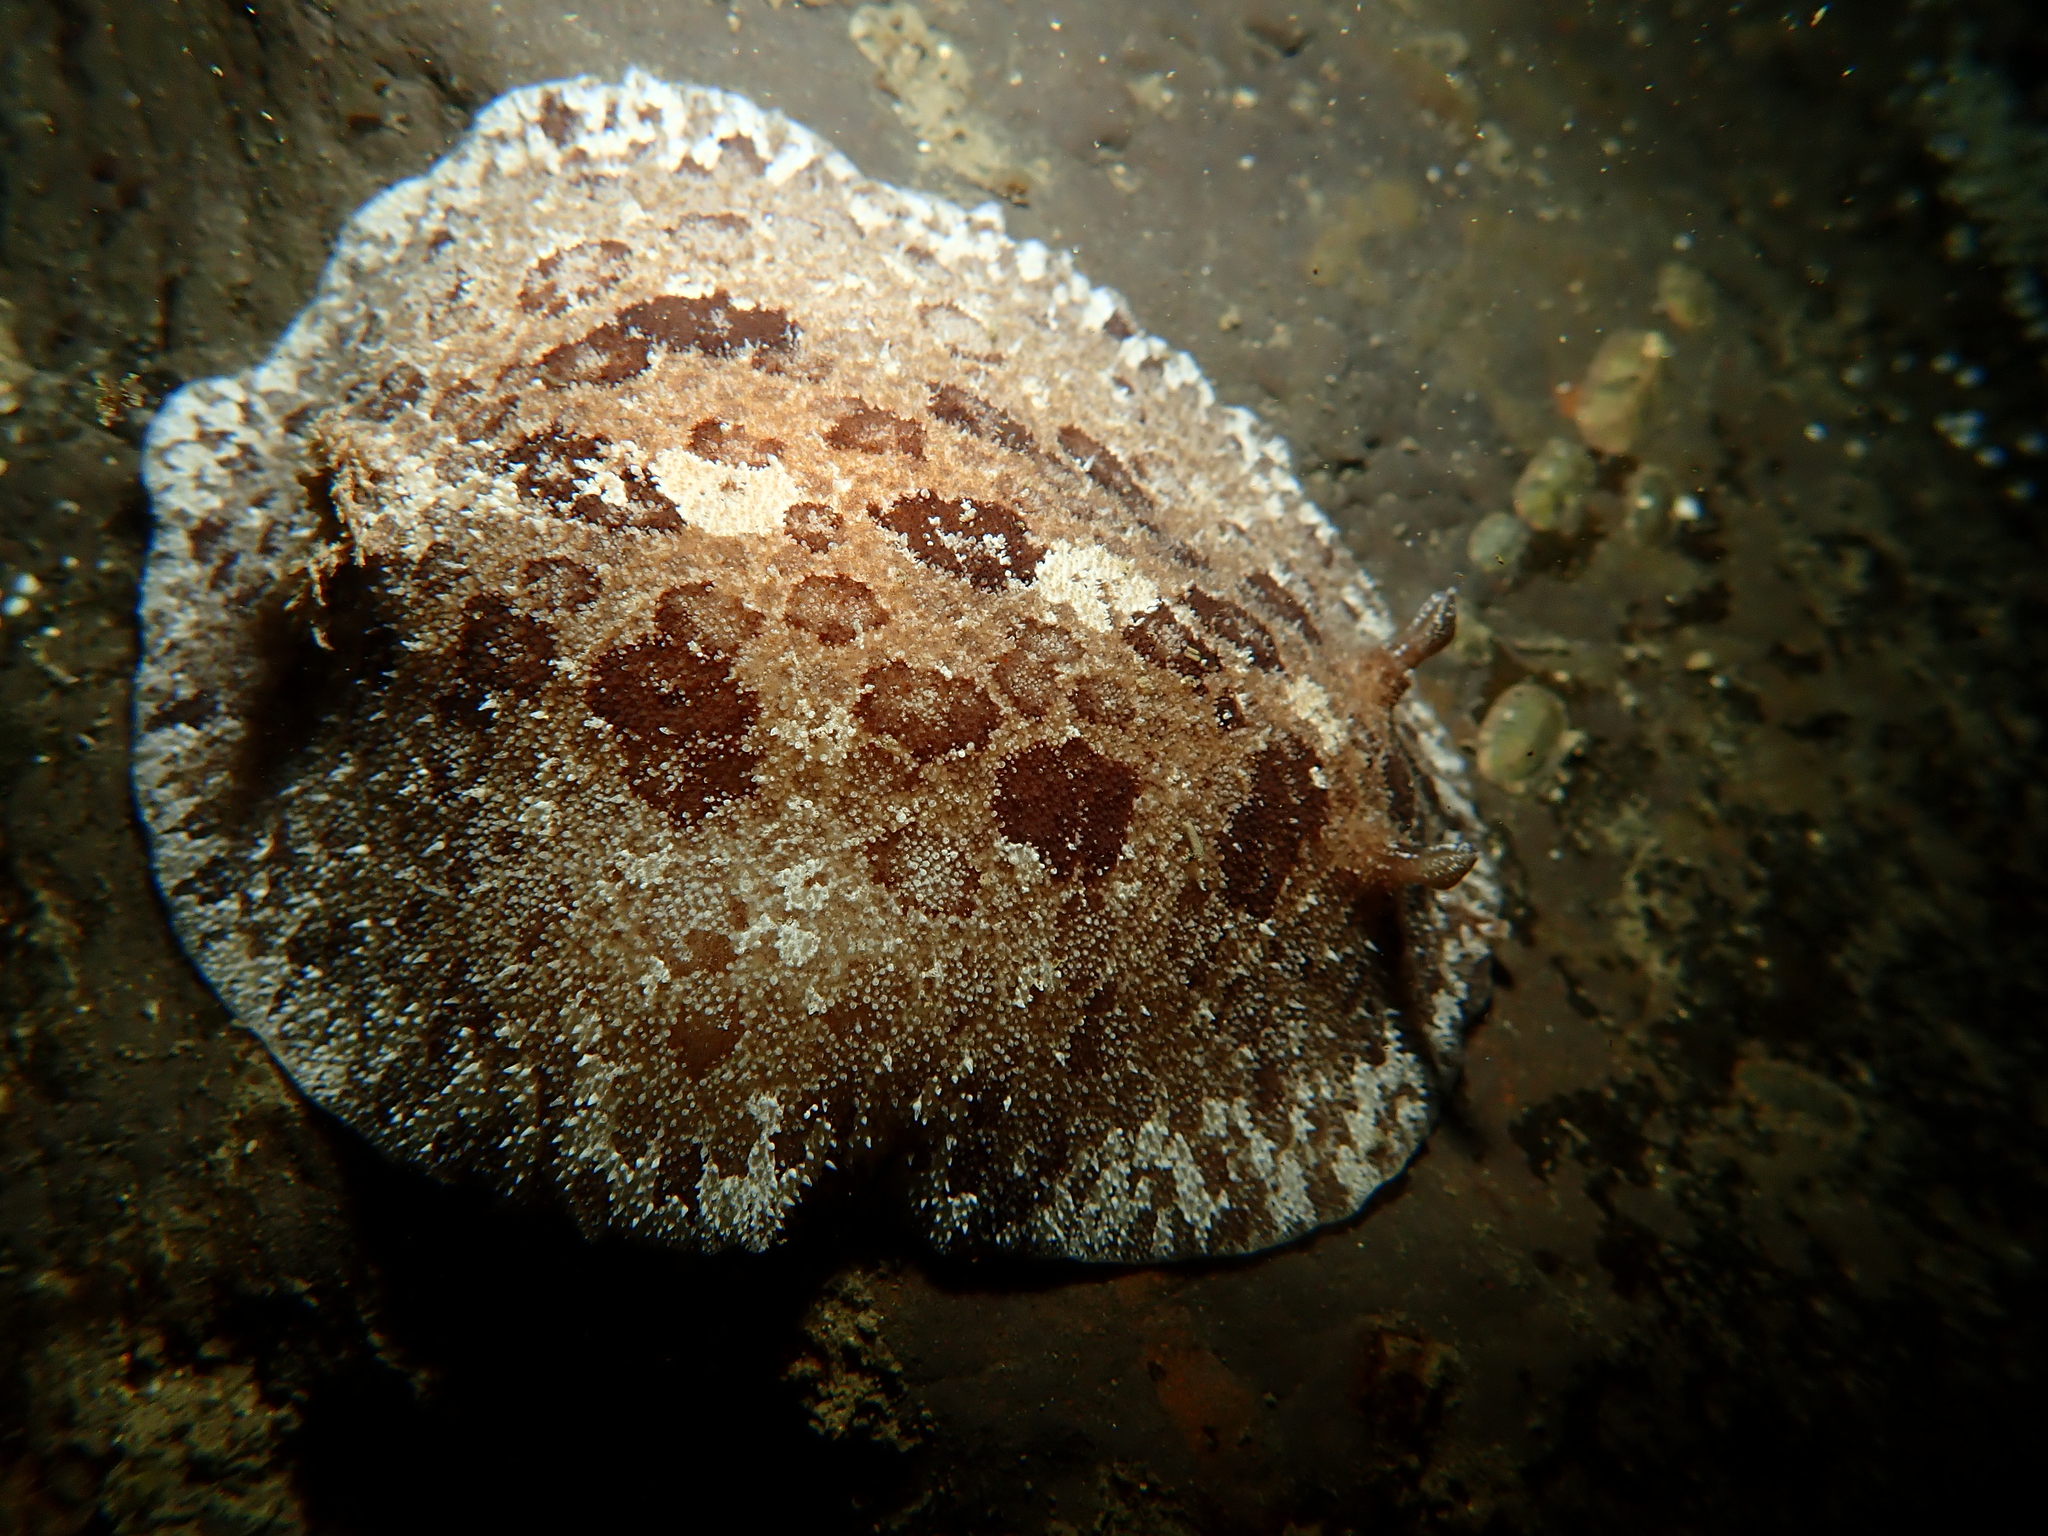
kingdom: Animalia
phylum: Mollusca
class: Gastropoda
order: Nudibranchia
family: Discodorididae
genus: Sebadoris
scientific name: Sebadoris fragilis
